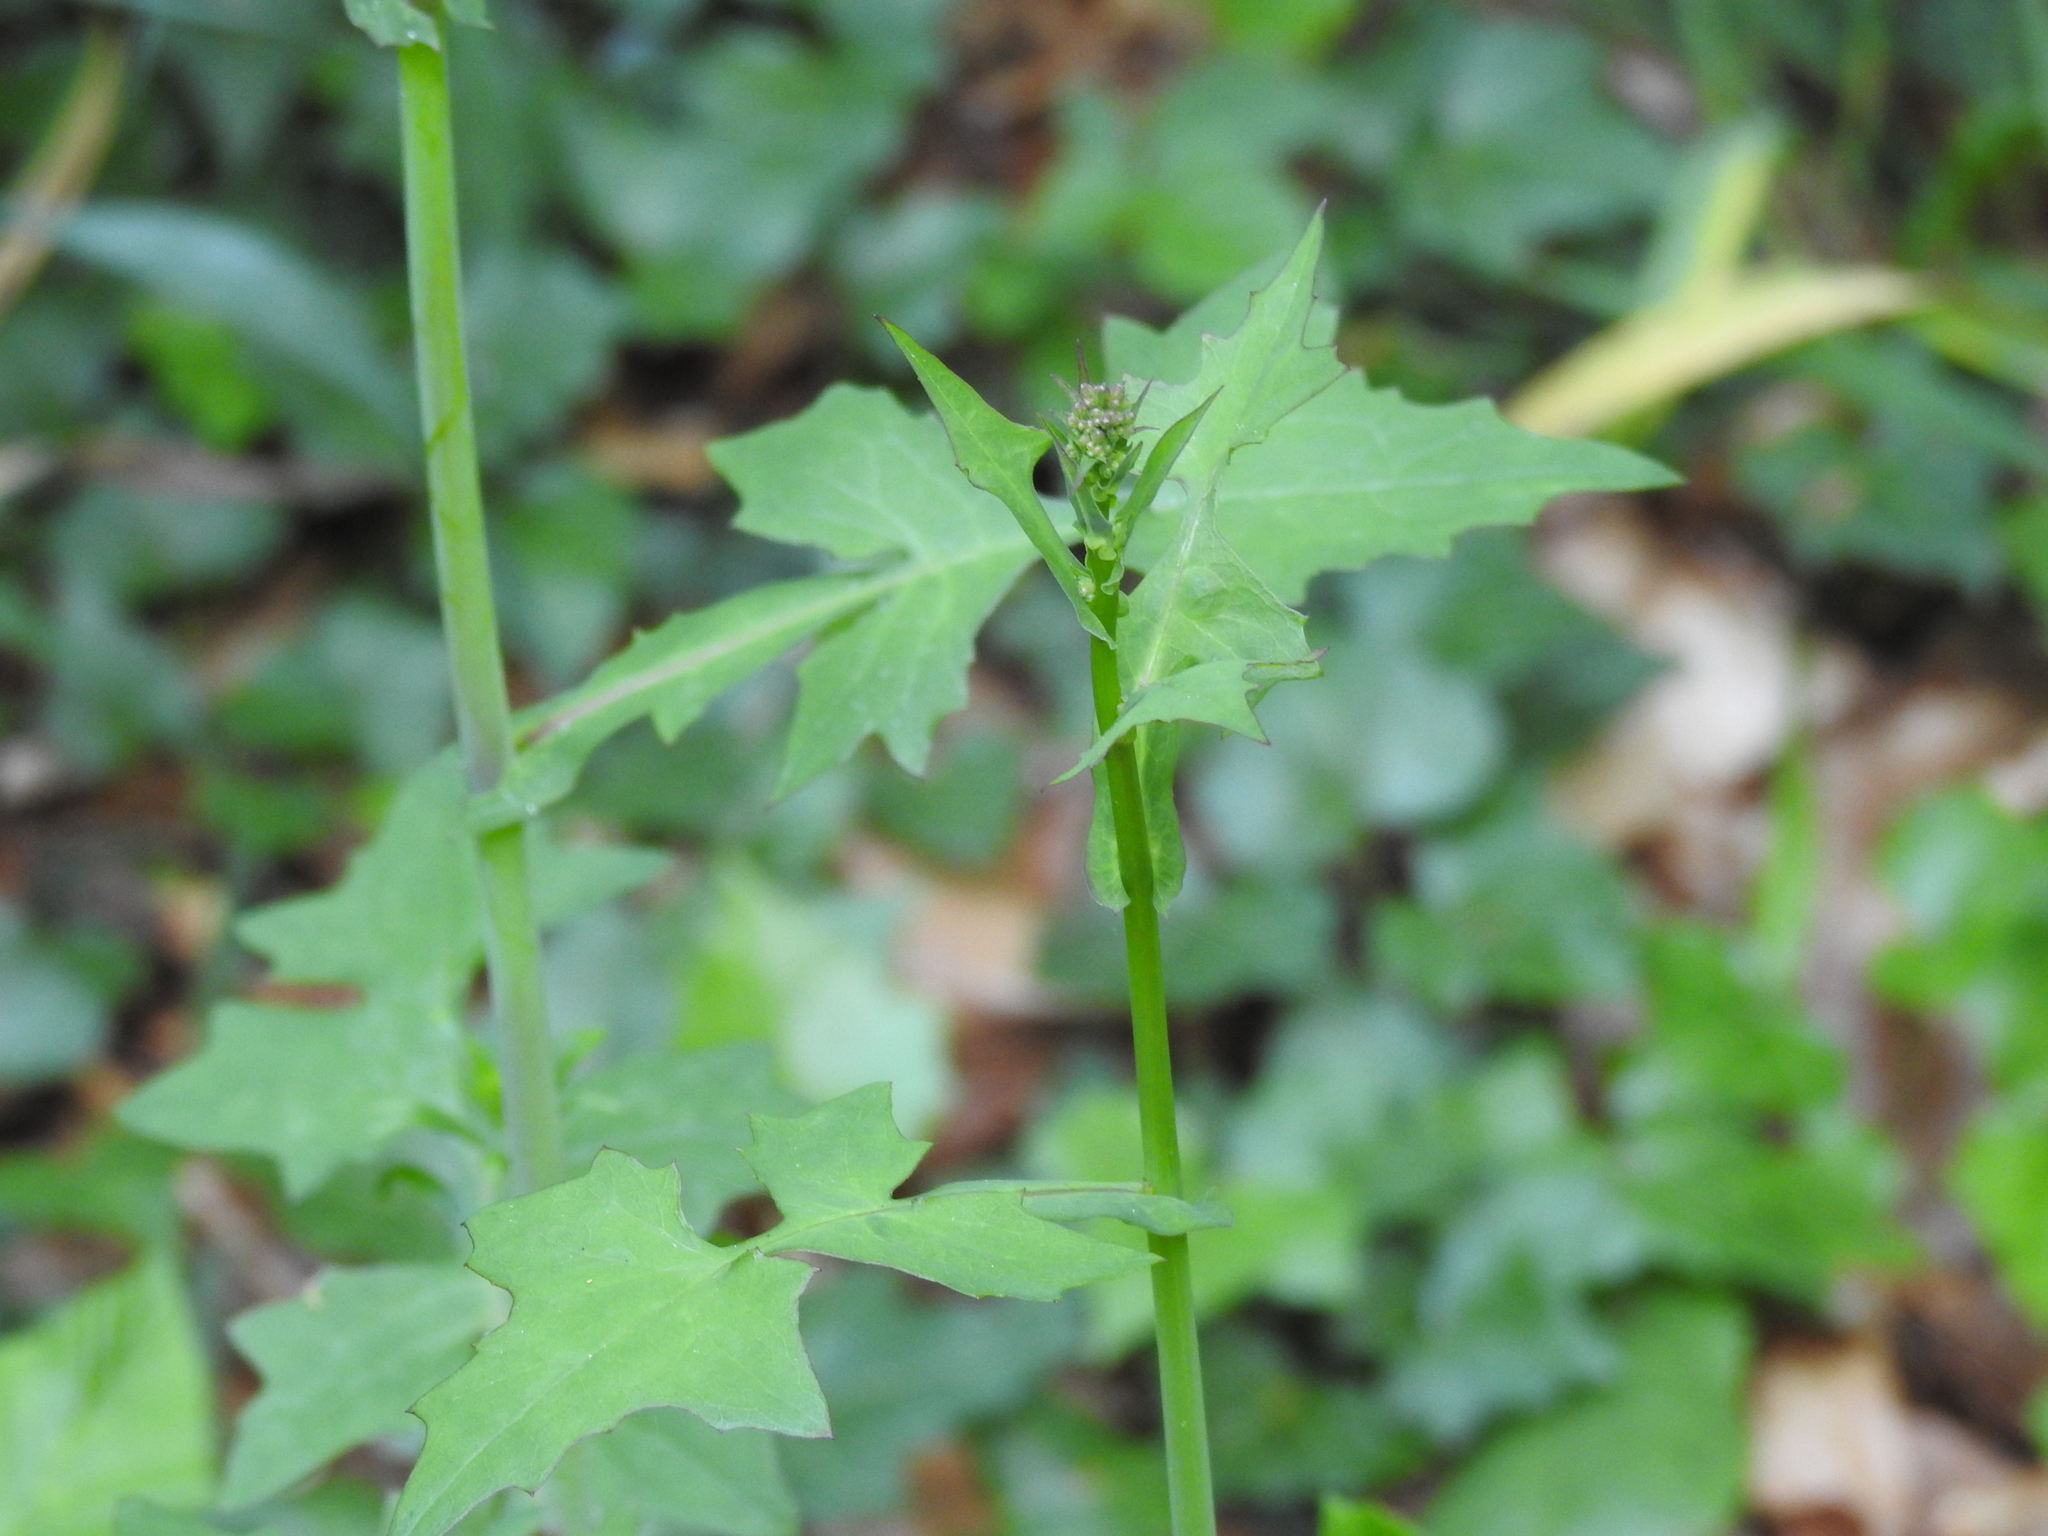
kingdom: Plantae
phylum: Tracheophyta
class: Magnoliopsida
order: Asterales
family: Asteraceae
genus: Mycelis
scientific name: Mycelis muralis
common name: Wall lettuce
